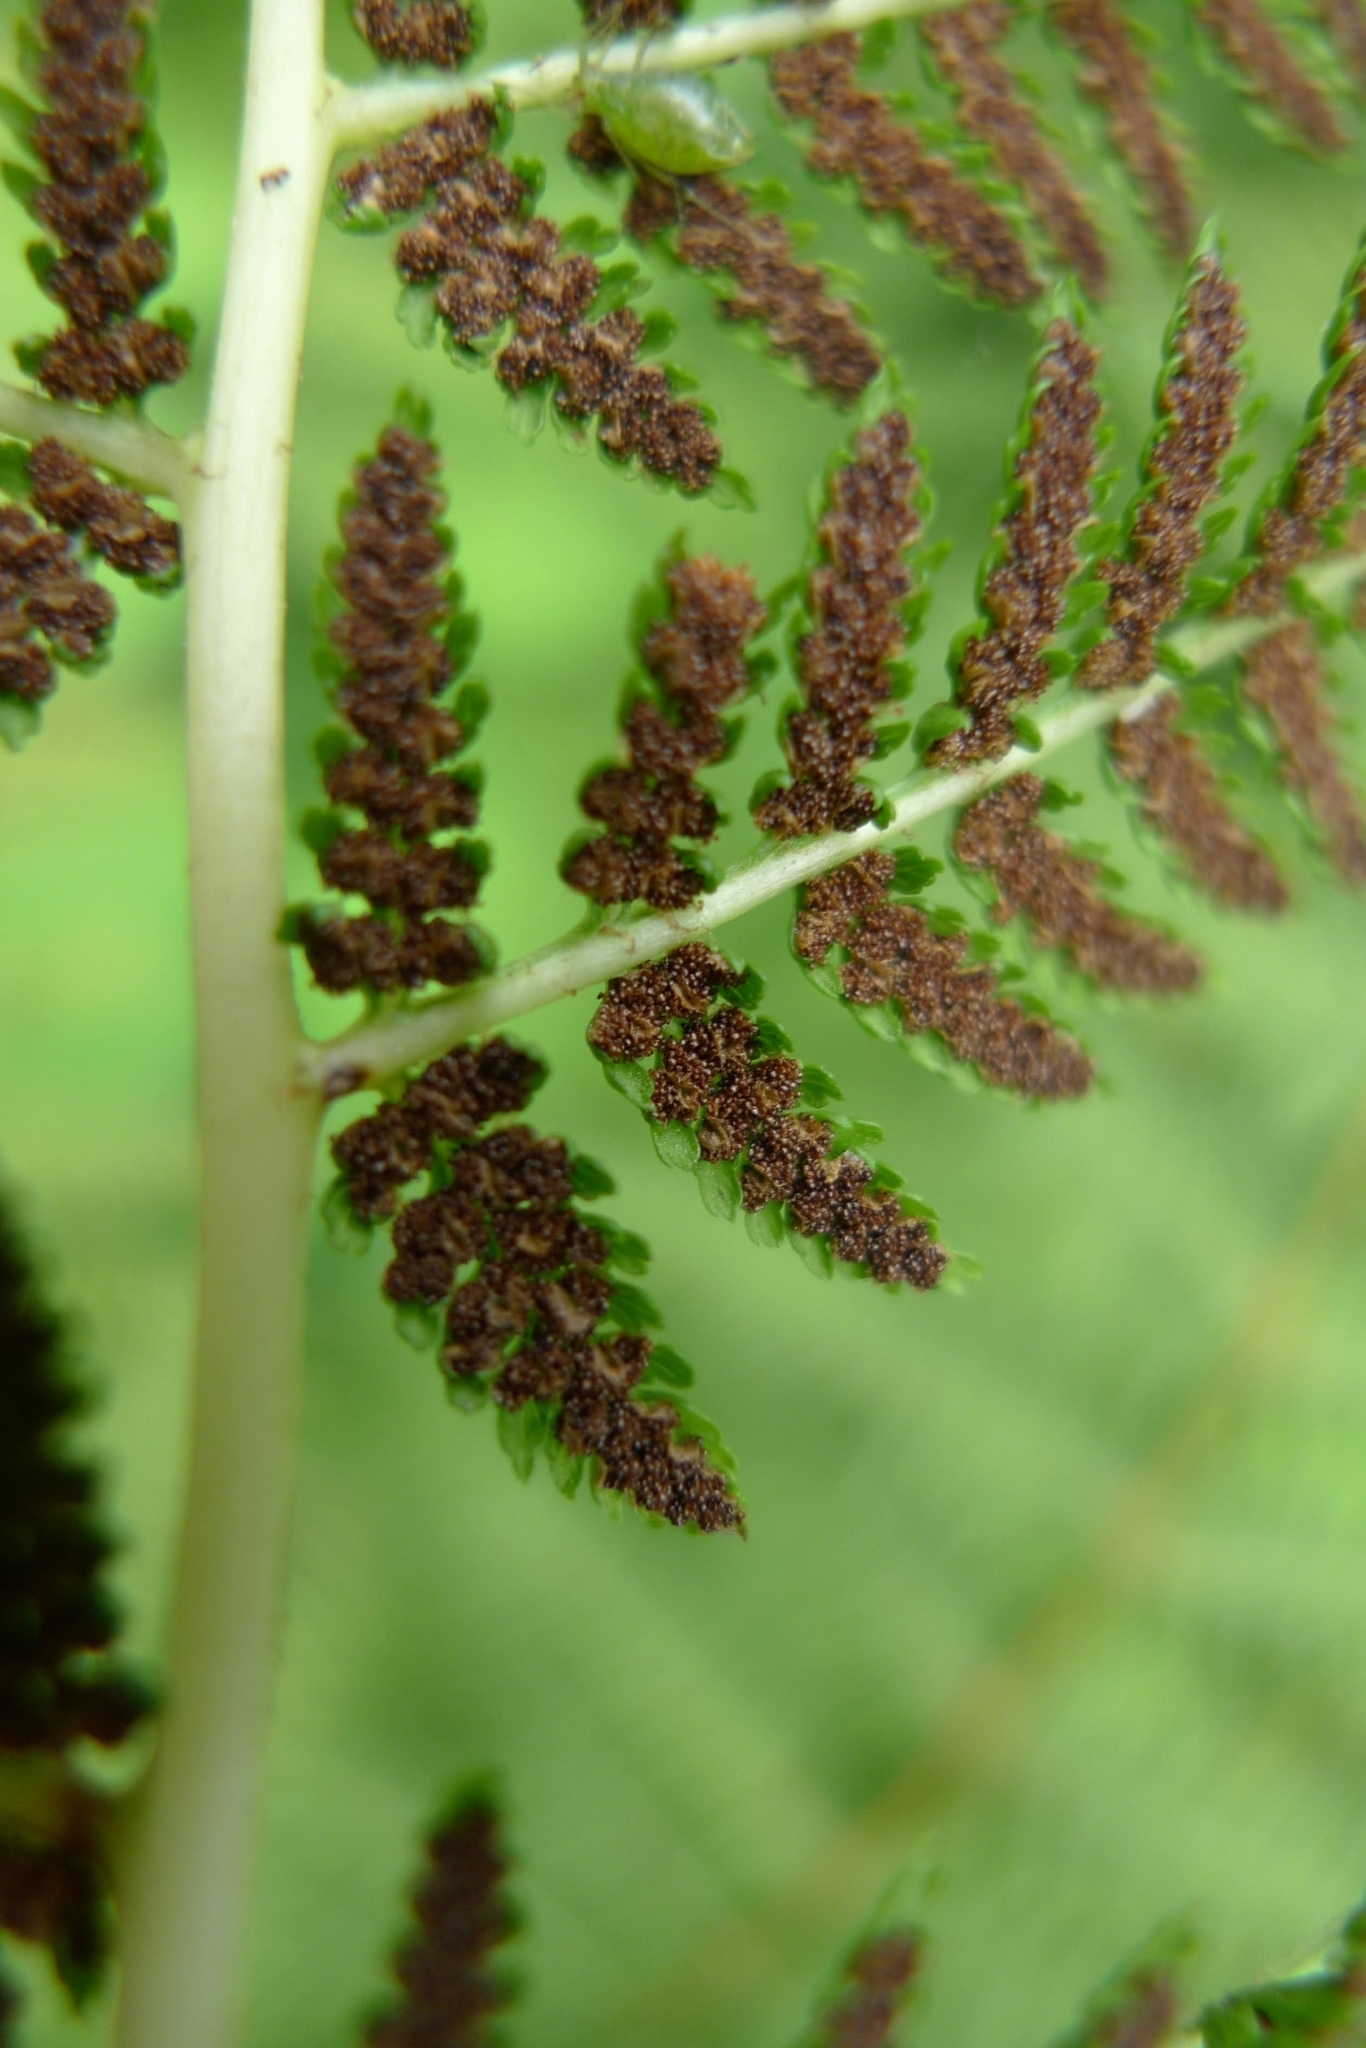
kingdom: Plantae
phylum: Tracheophyta
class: Polypodiopsida
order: Polypodiales
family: Athyriaceae
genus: Athyrium
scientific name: Athyrium filix-femina
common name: Lady fern
